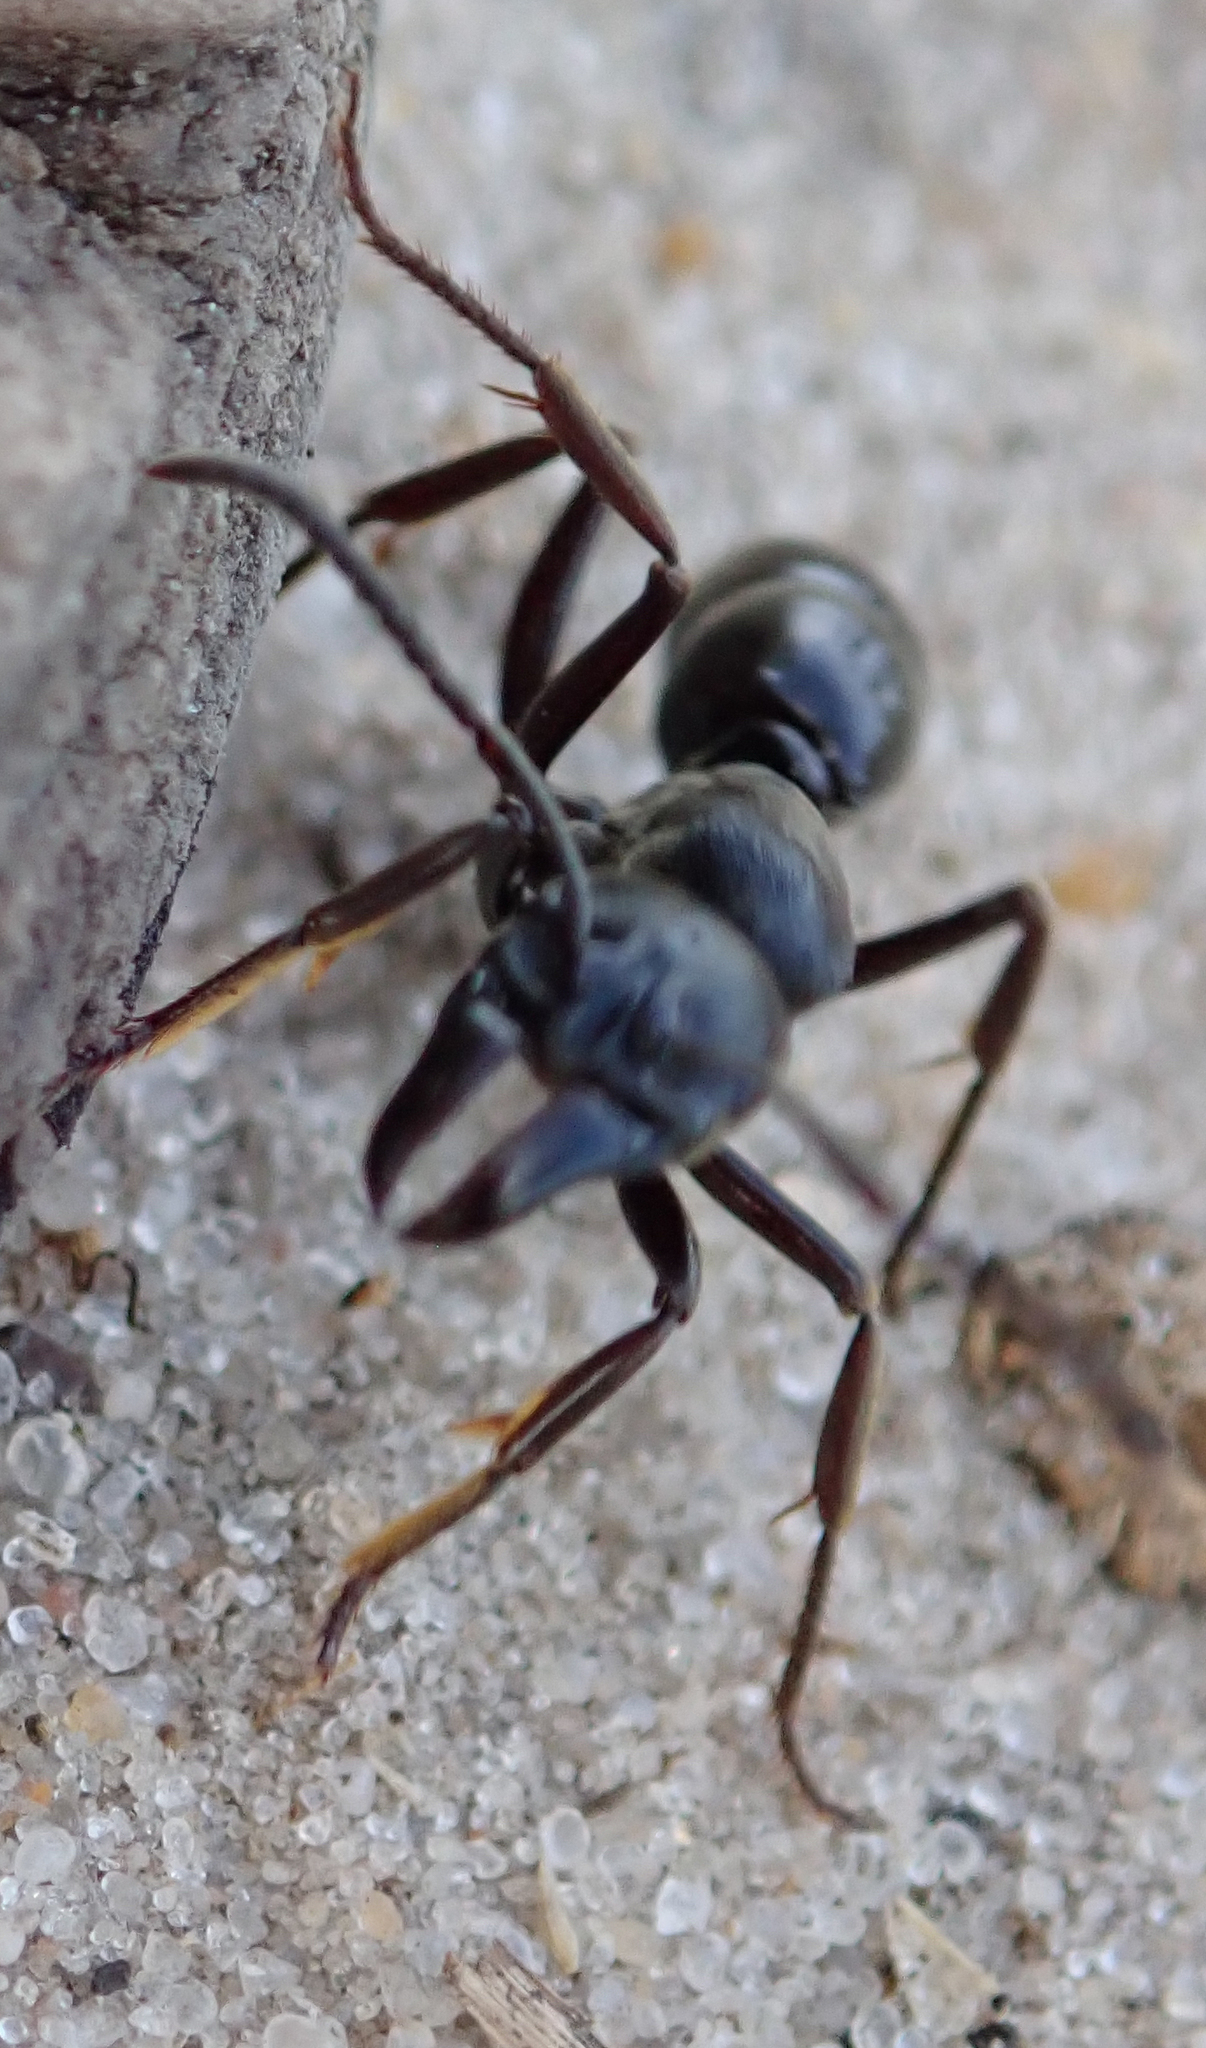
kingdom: Animalia
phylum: Arthropoda
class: Insecta
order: Hymenoptera
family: Formicidae
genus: Paltothyreus
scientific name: Paltothyreus tarsatus
